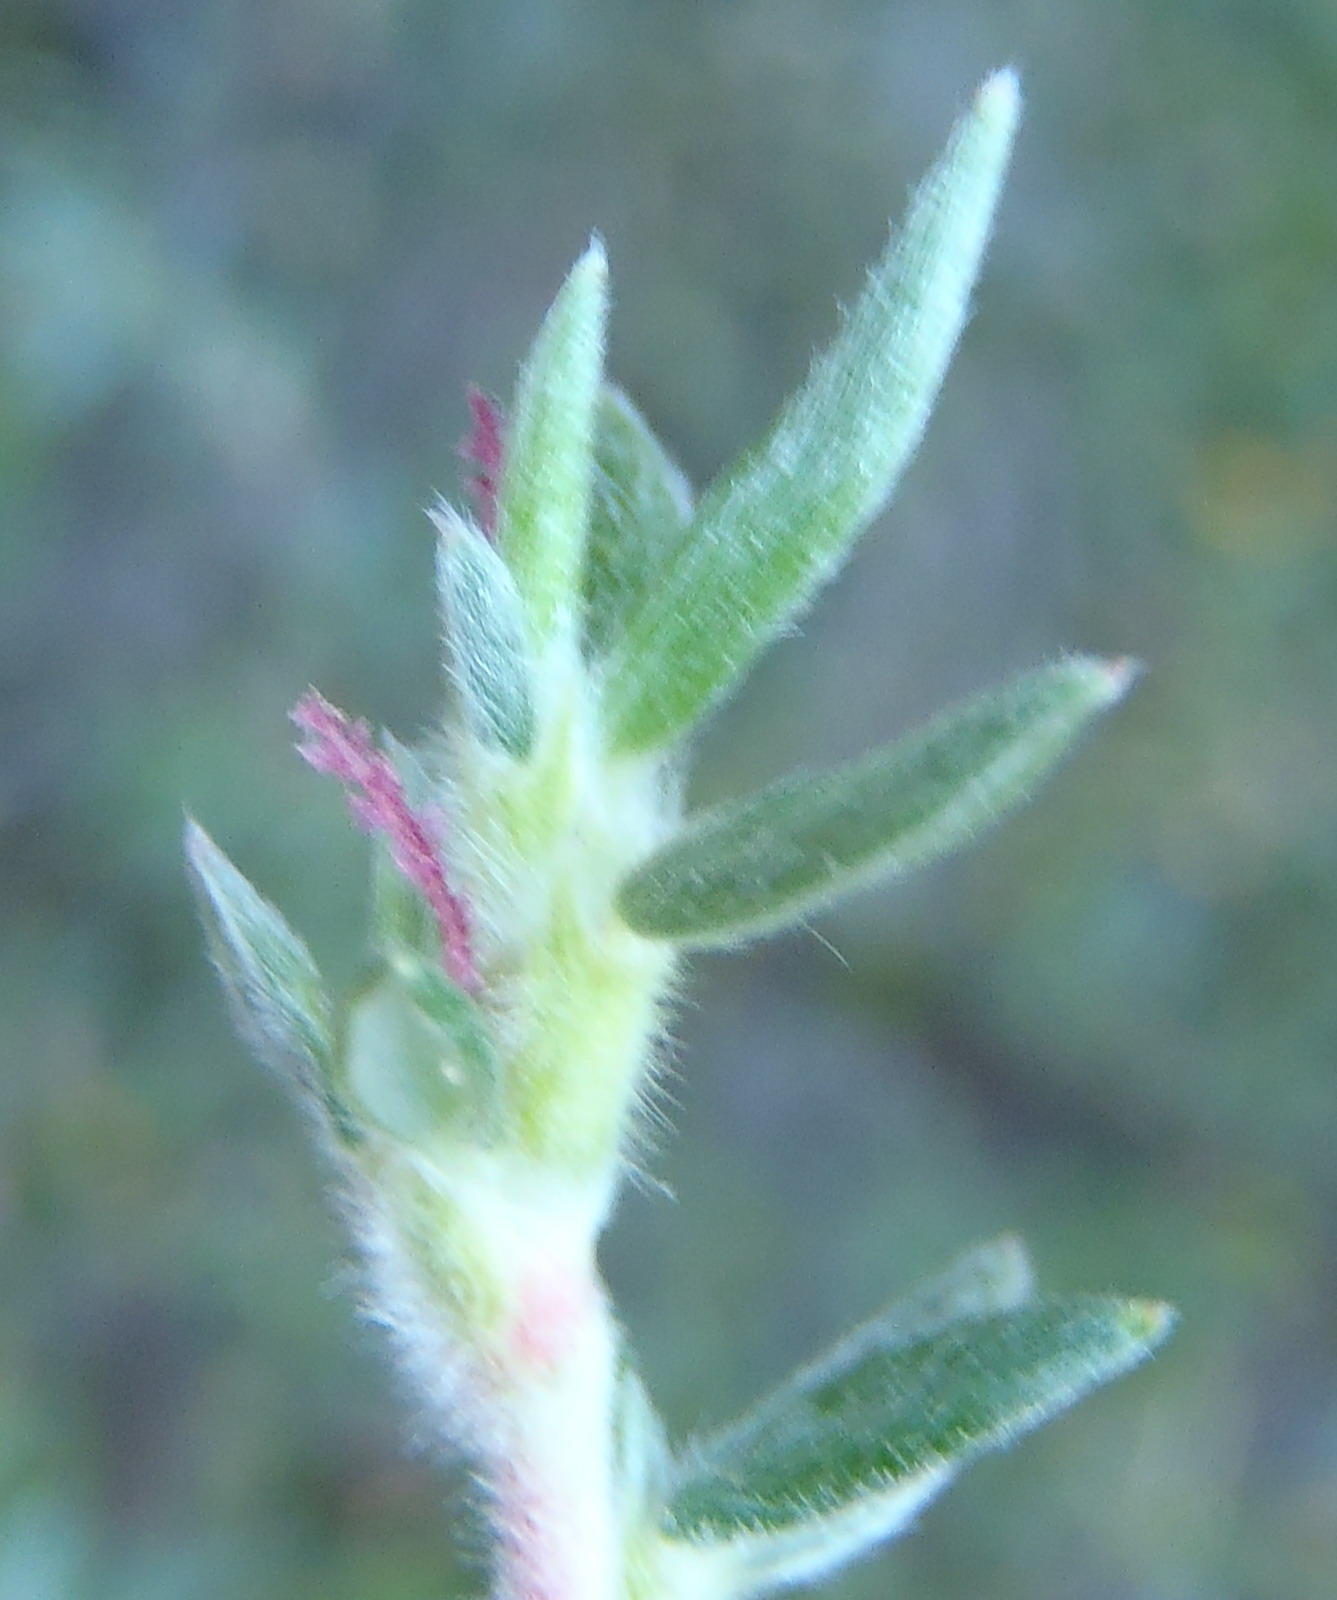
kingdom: Plantae
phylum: Tracheophyta
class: Magnoliopsida
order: Rosales
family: Rosaceae
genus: Cliffortia
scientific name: Cliffortia dispar
